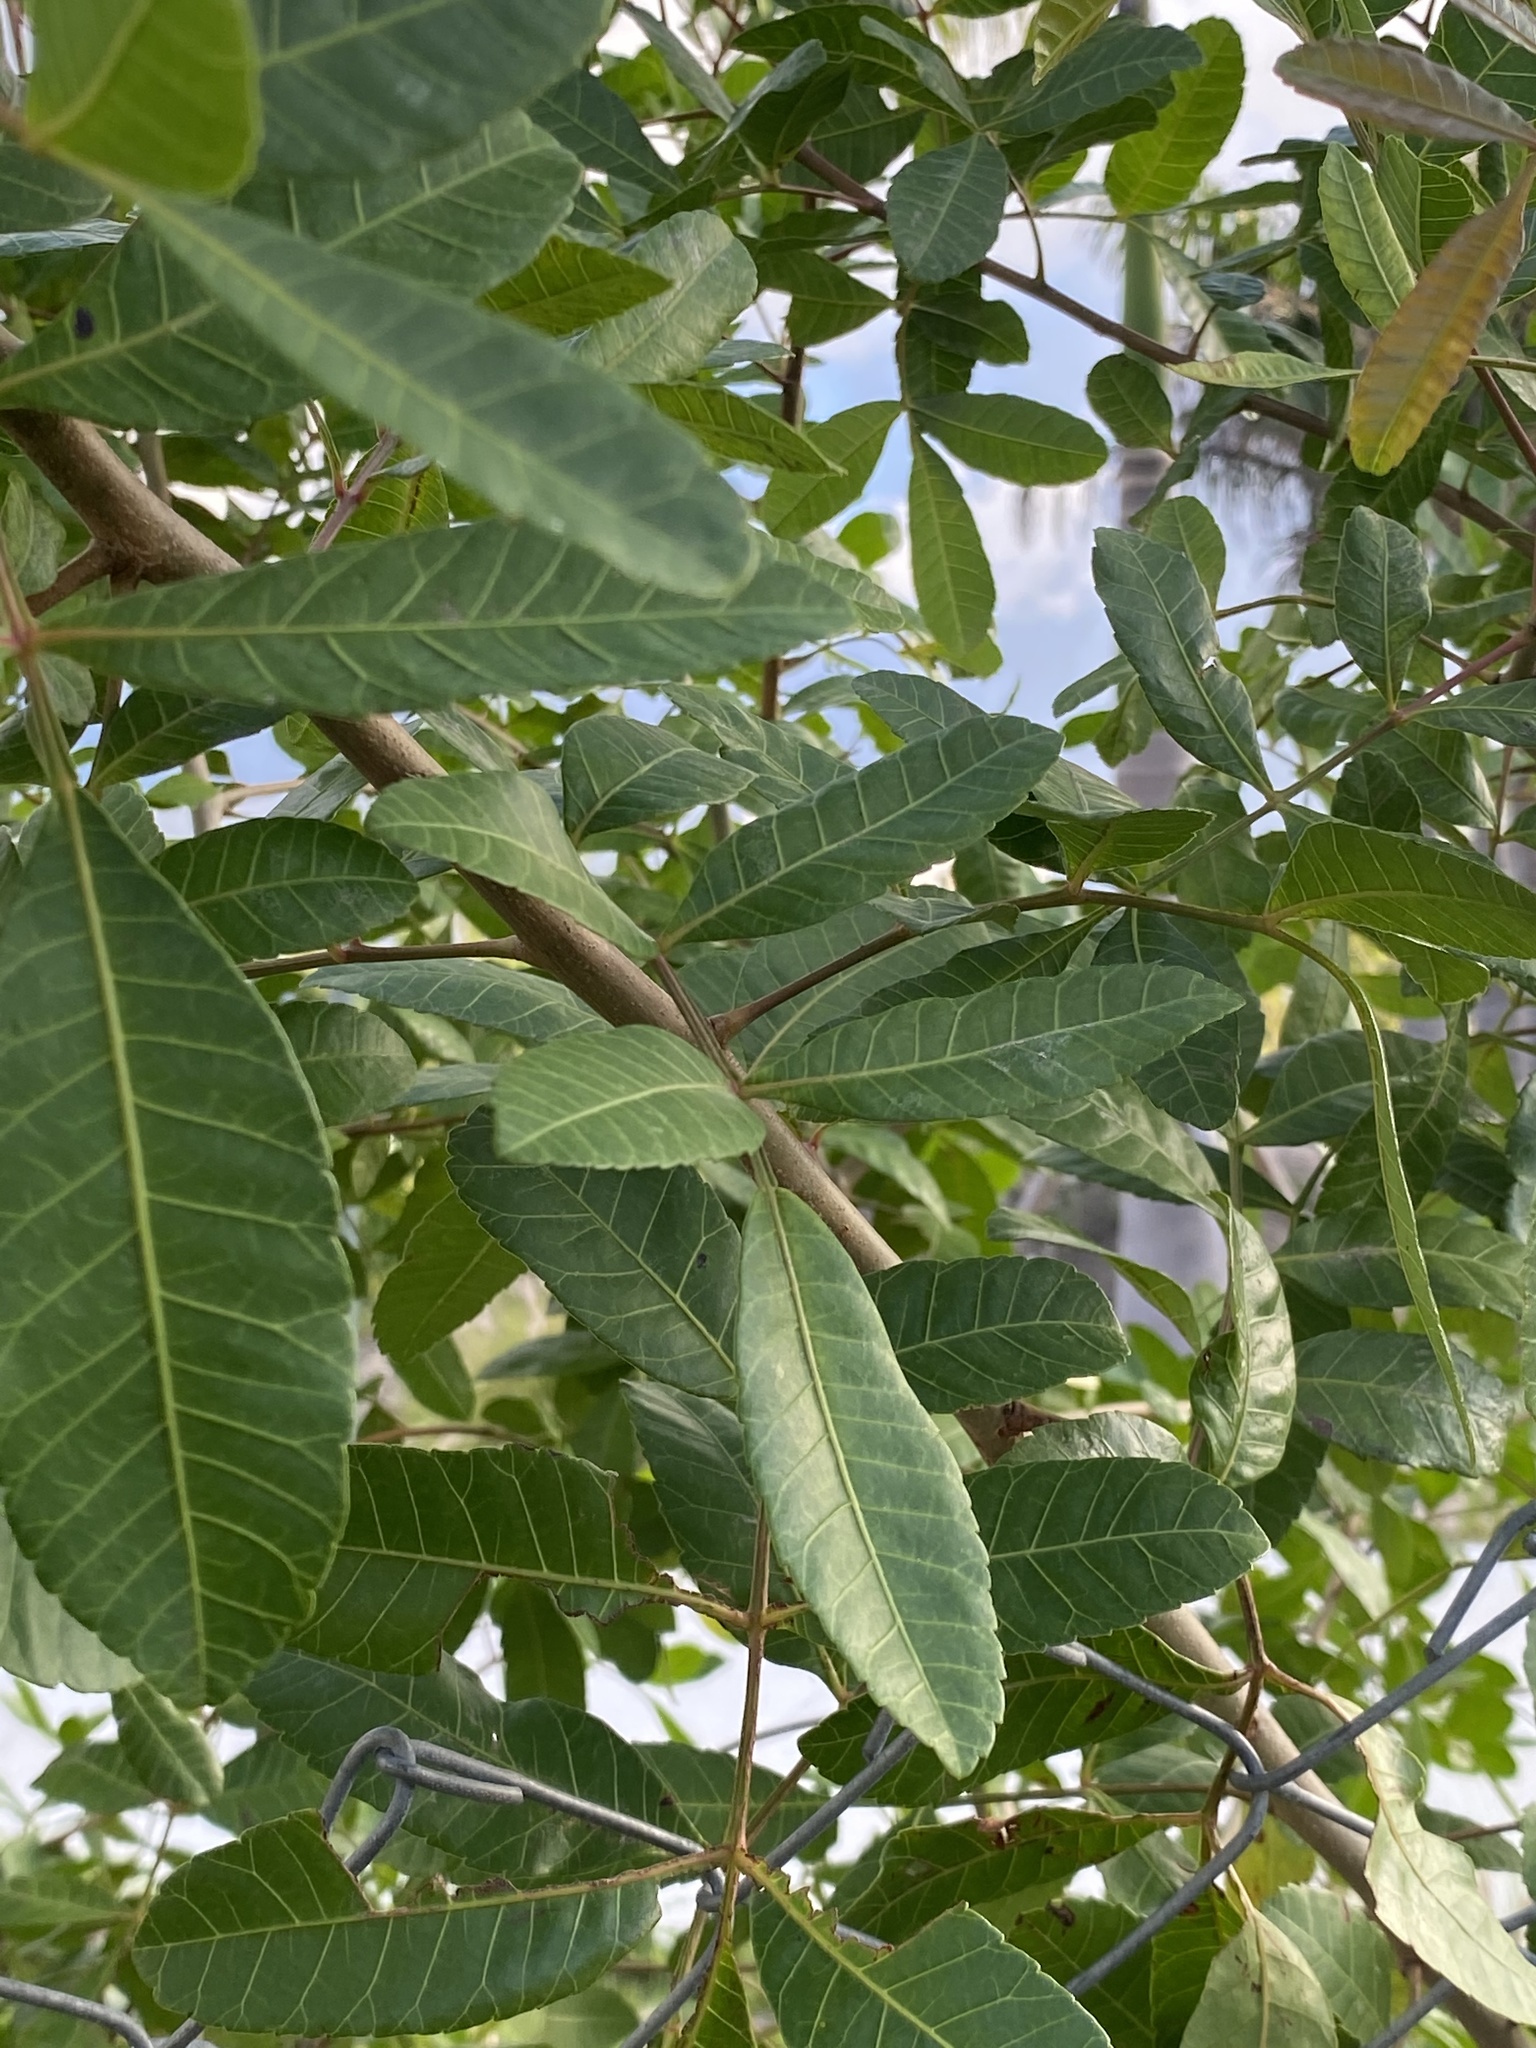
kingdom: Plantae
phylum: Tracheophyta
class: Magnoliopsida
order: Sapindales
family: Anacardiaceae
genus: Schinus
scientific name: Schinus terebinthifolia
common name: Brazilian peppertree
